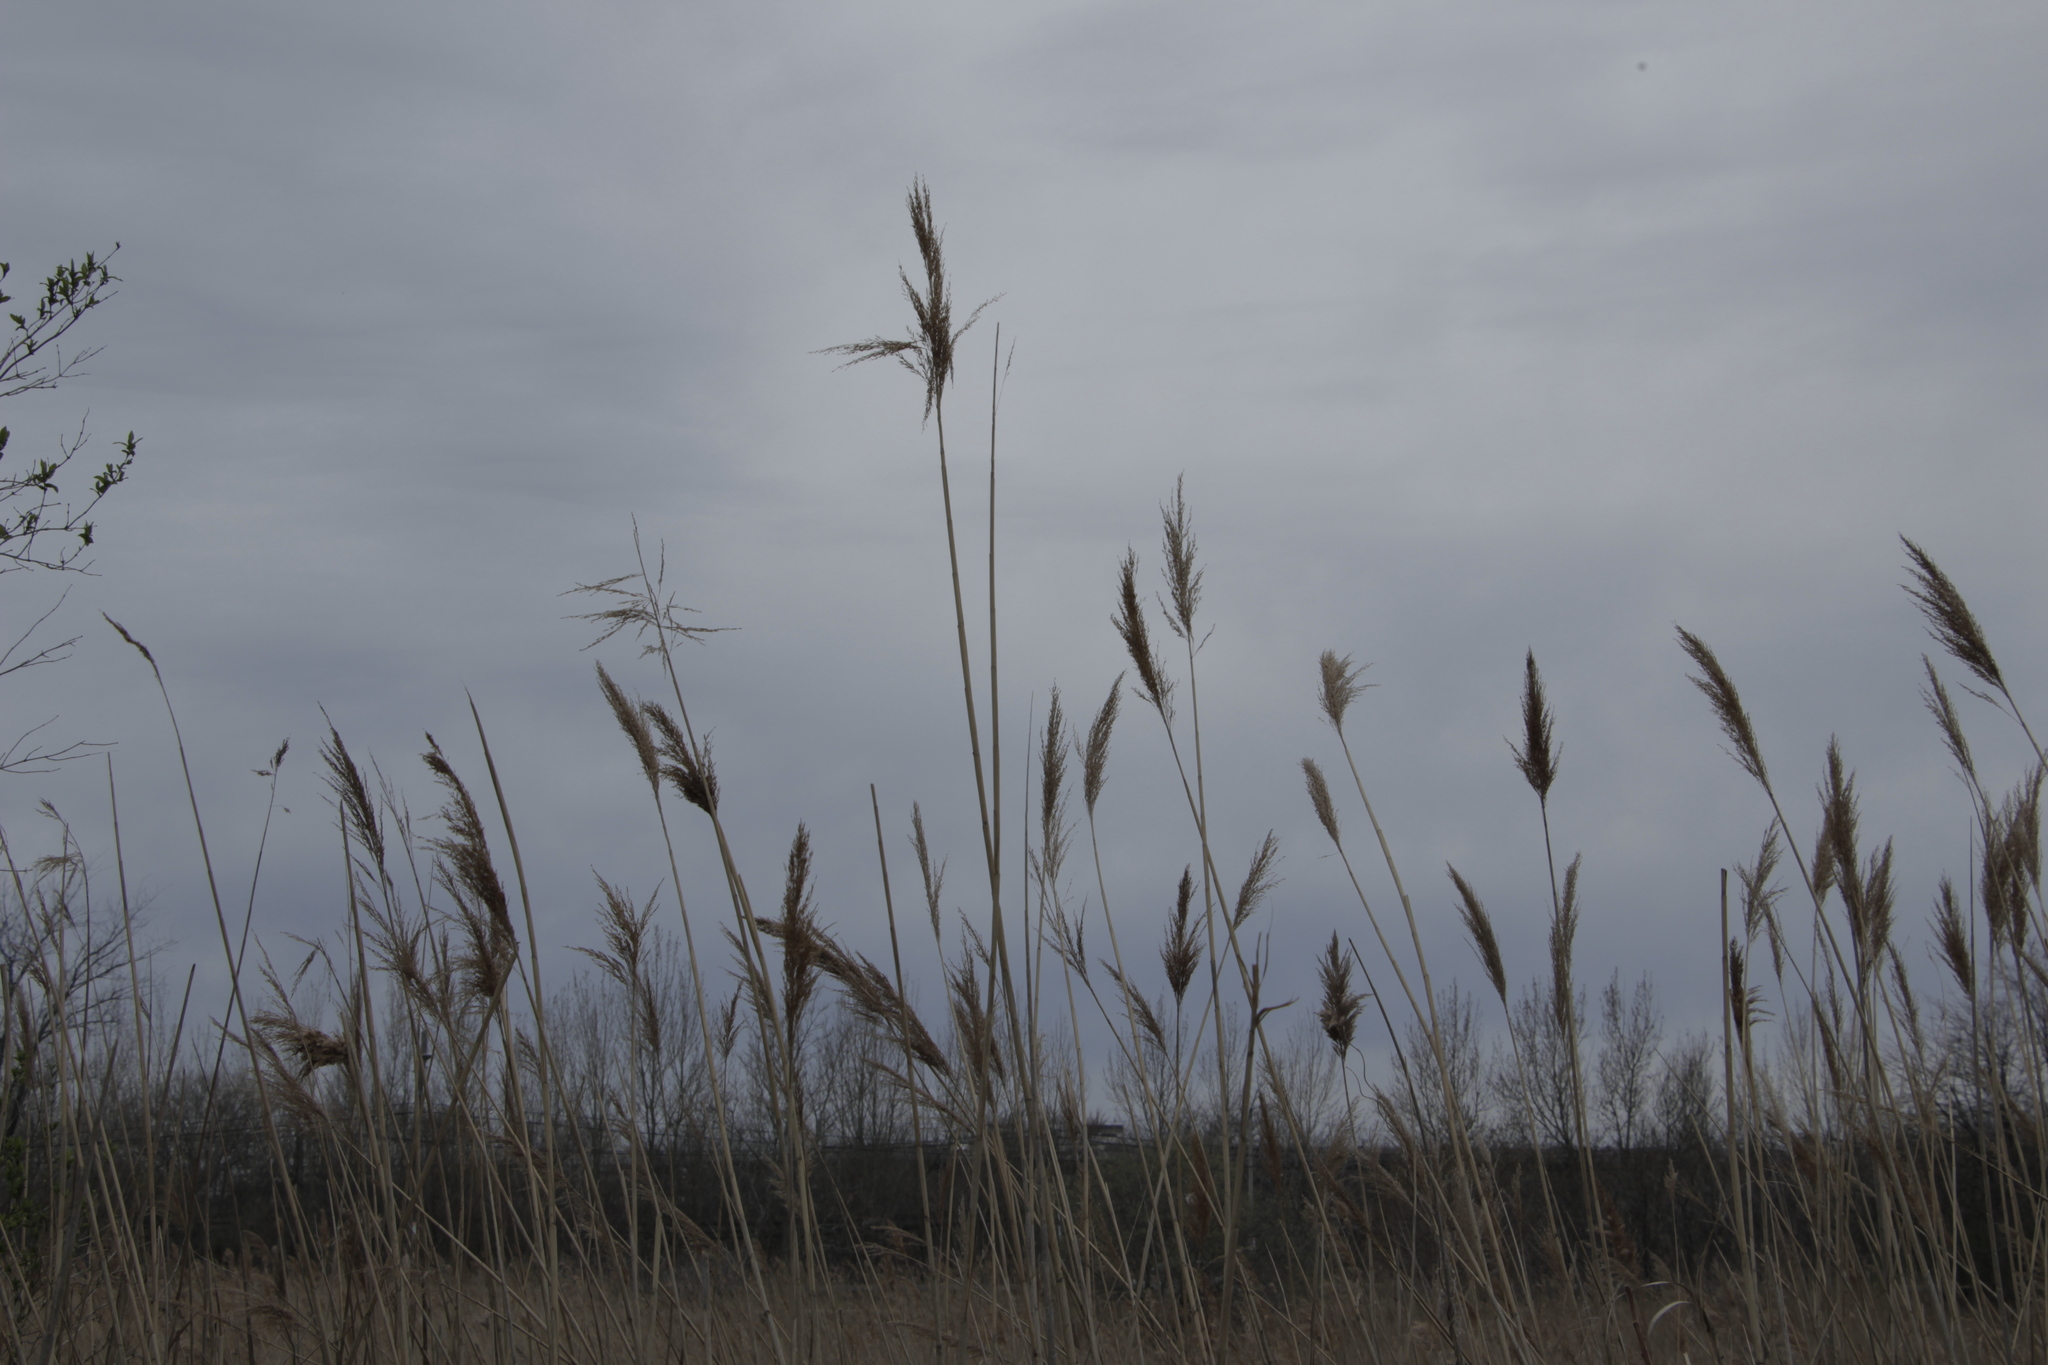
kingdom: Plantae
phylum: Tracheophyta
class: Liliopsida
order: Poales
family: Poaceae
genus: Phragmites
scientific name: Phragmites australis
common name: Common reed
